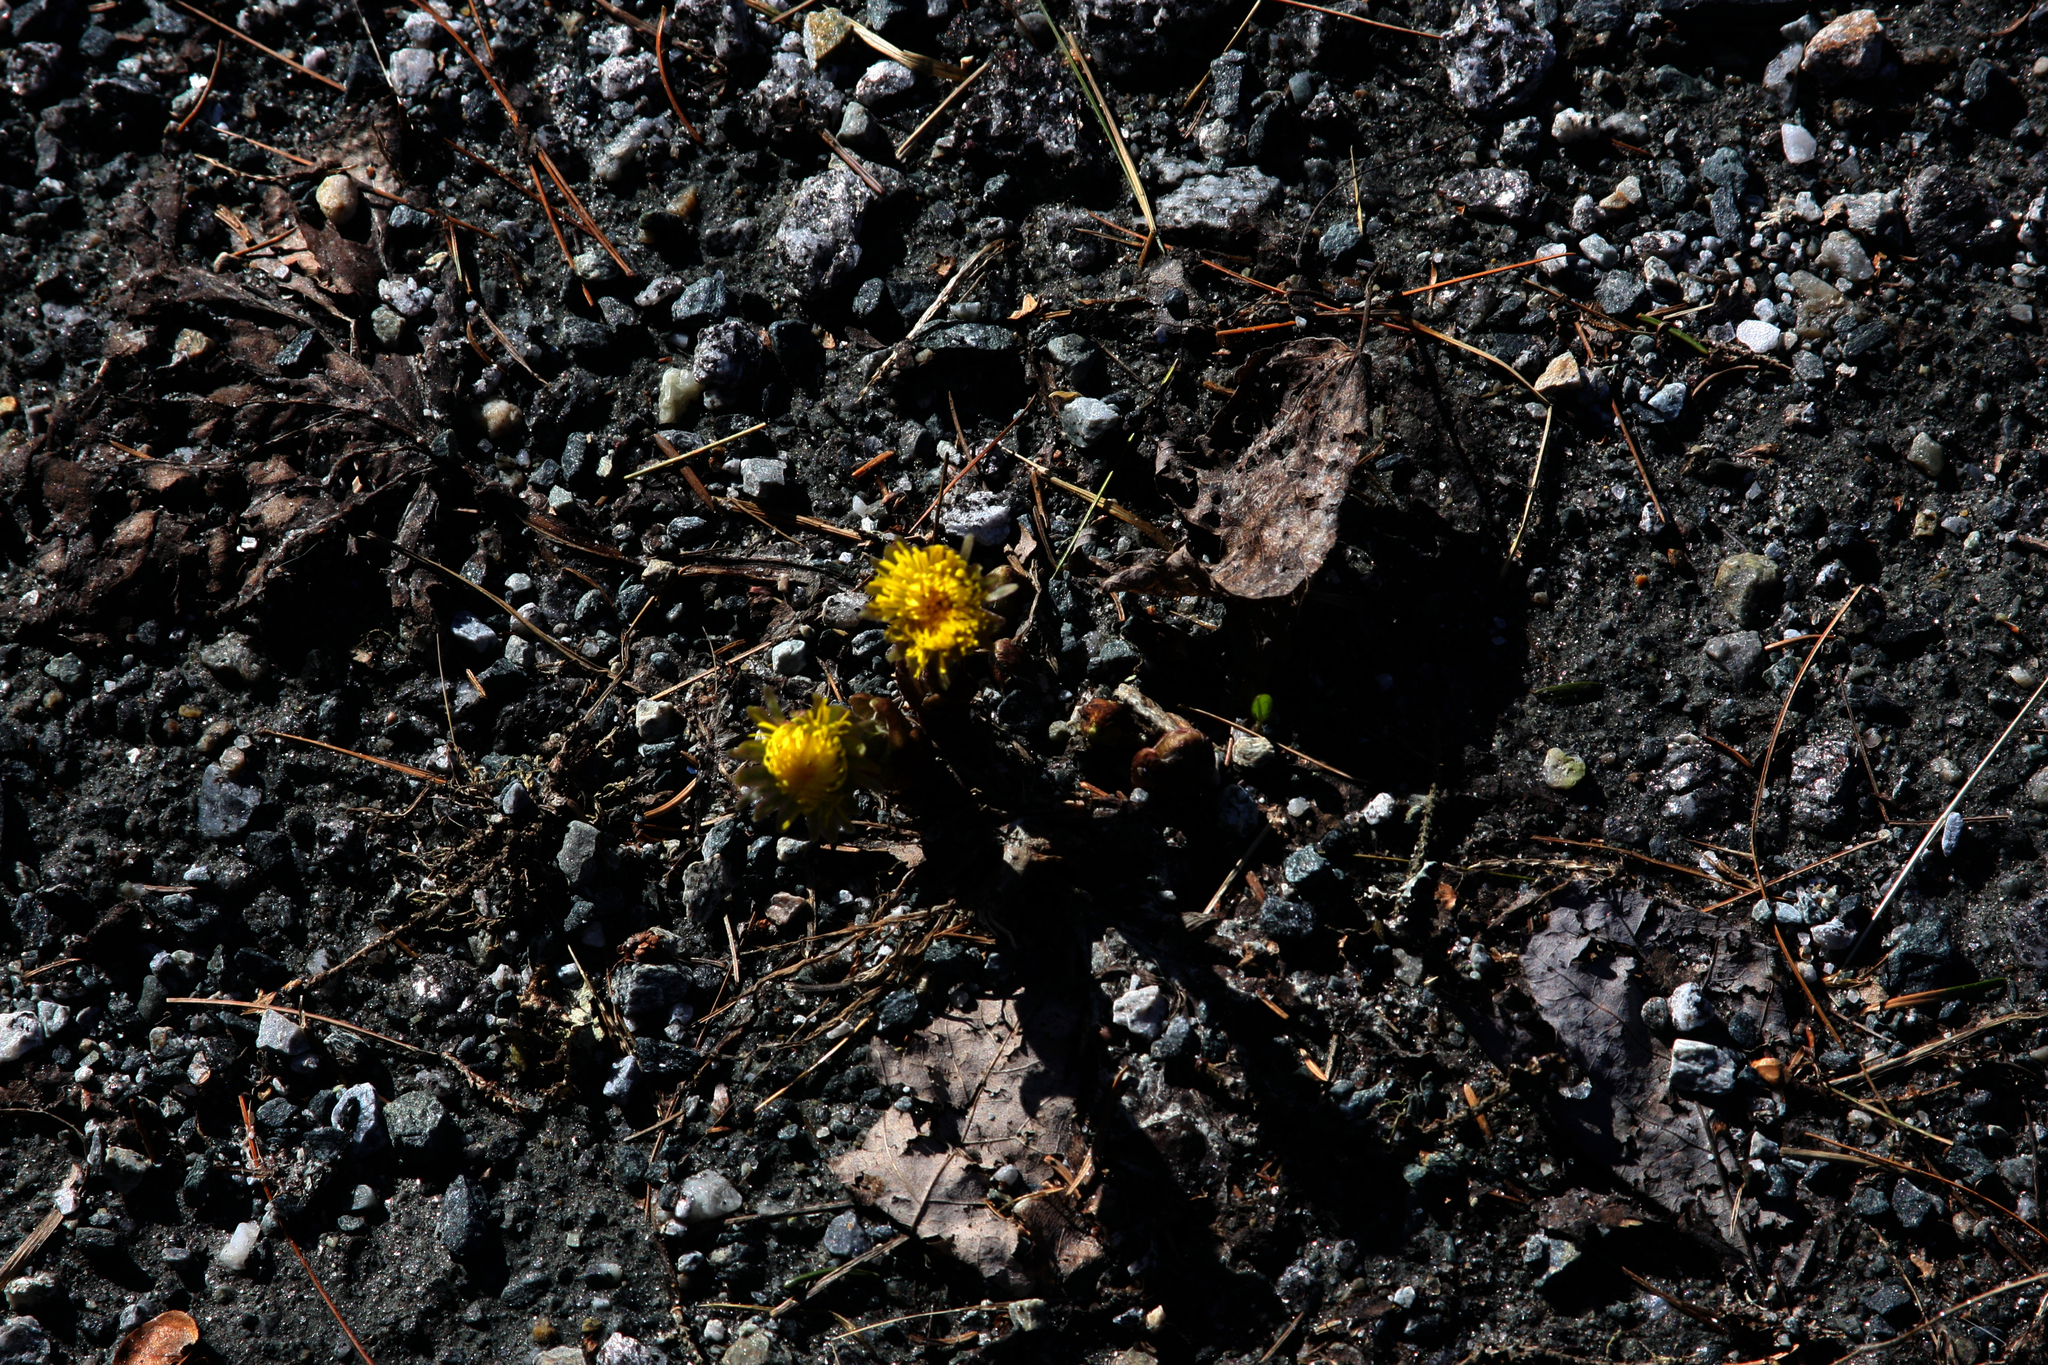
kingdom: Plantae
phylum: Tracheophyta
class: Magnoliopsida
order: Asterales
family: Asteraceae
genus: Tussilago
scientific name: Tussilago farfara
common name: Coltsfoot
